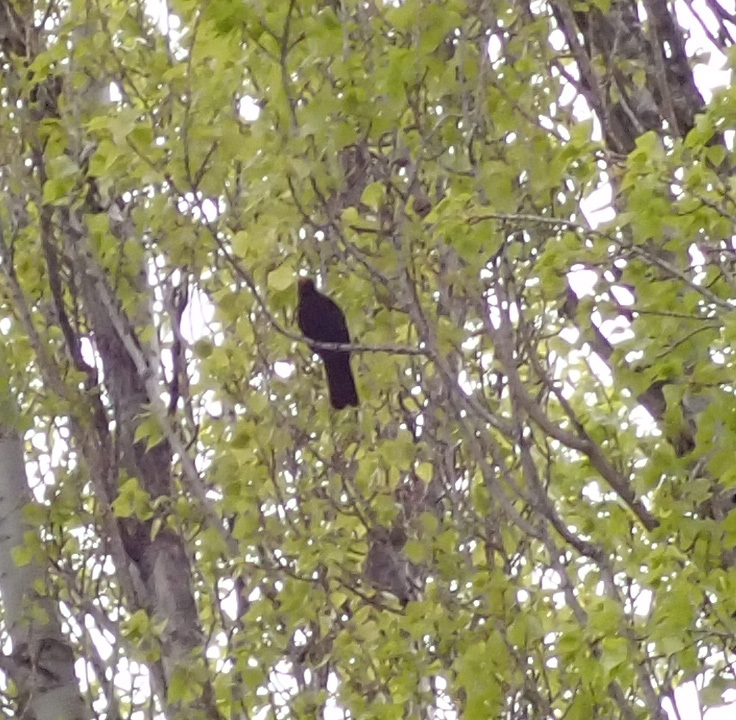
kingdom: Animalia
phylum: Chordata
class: Aves
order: Passeriformes
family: Turdidae
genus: Turdus
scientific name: Turdus merula
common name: Common blackbird
